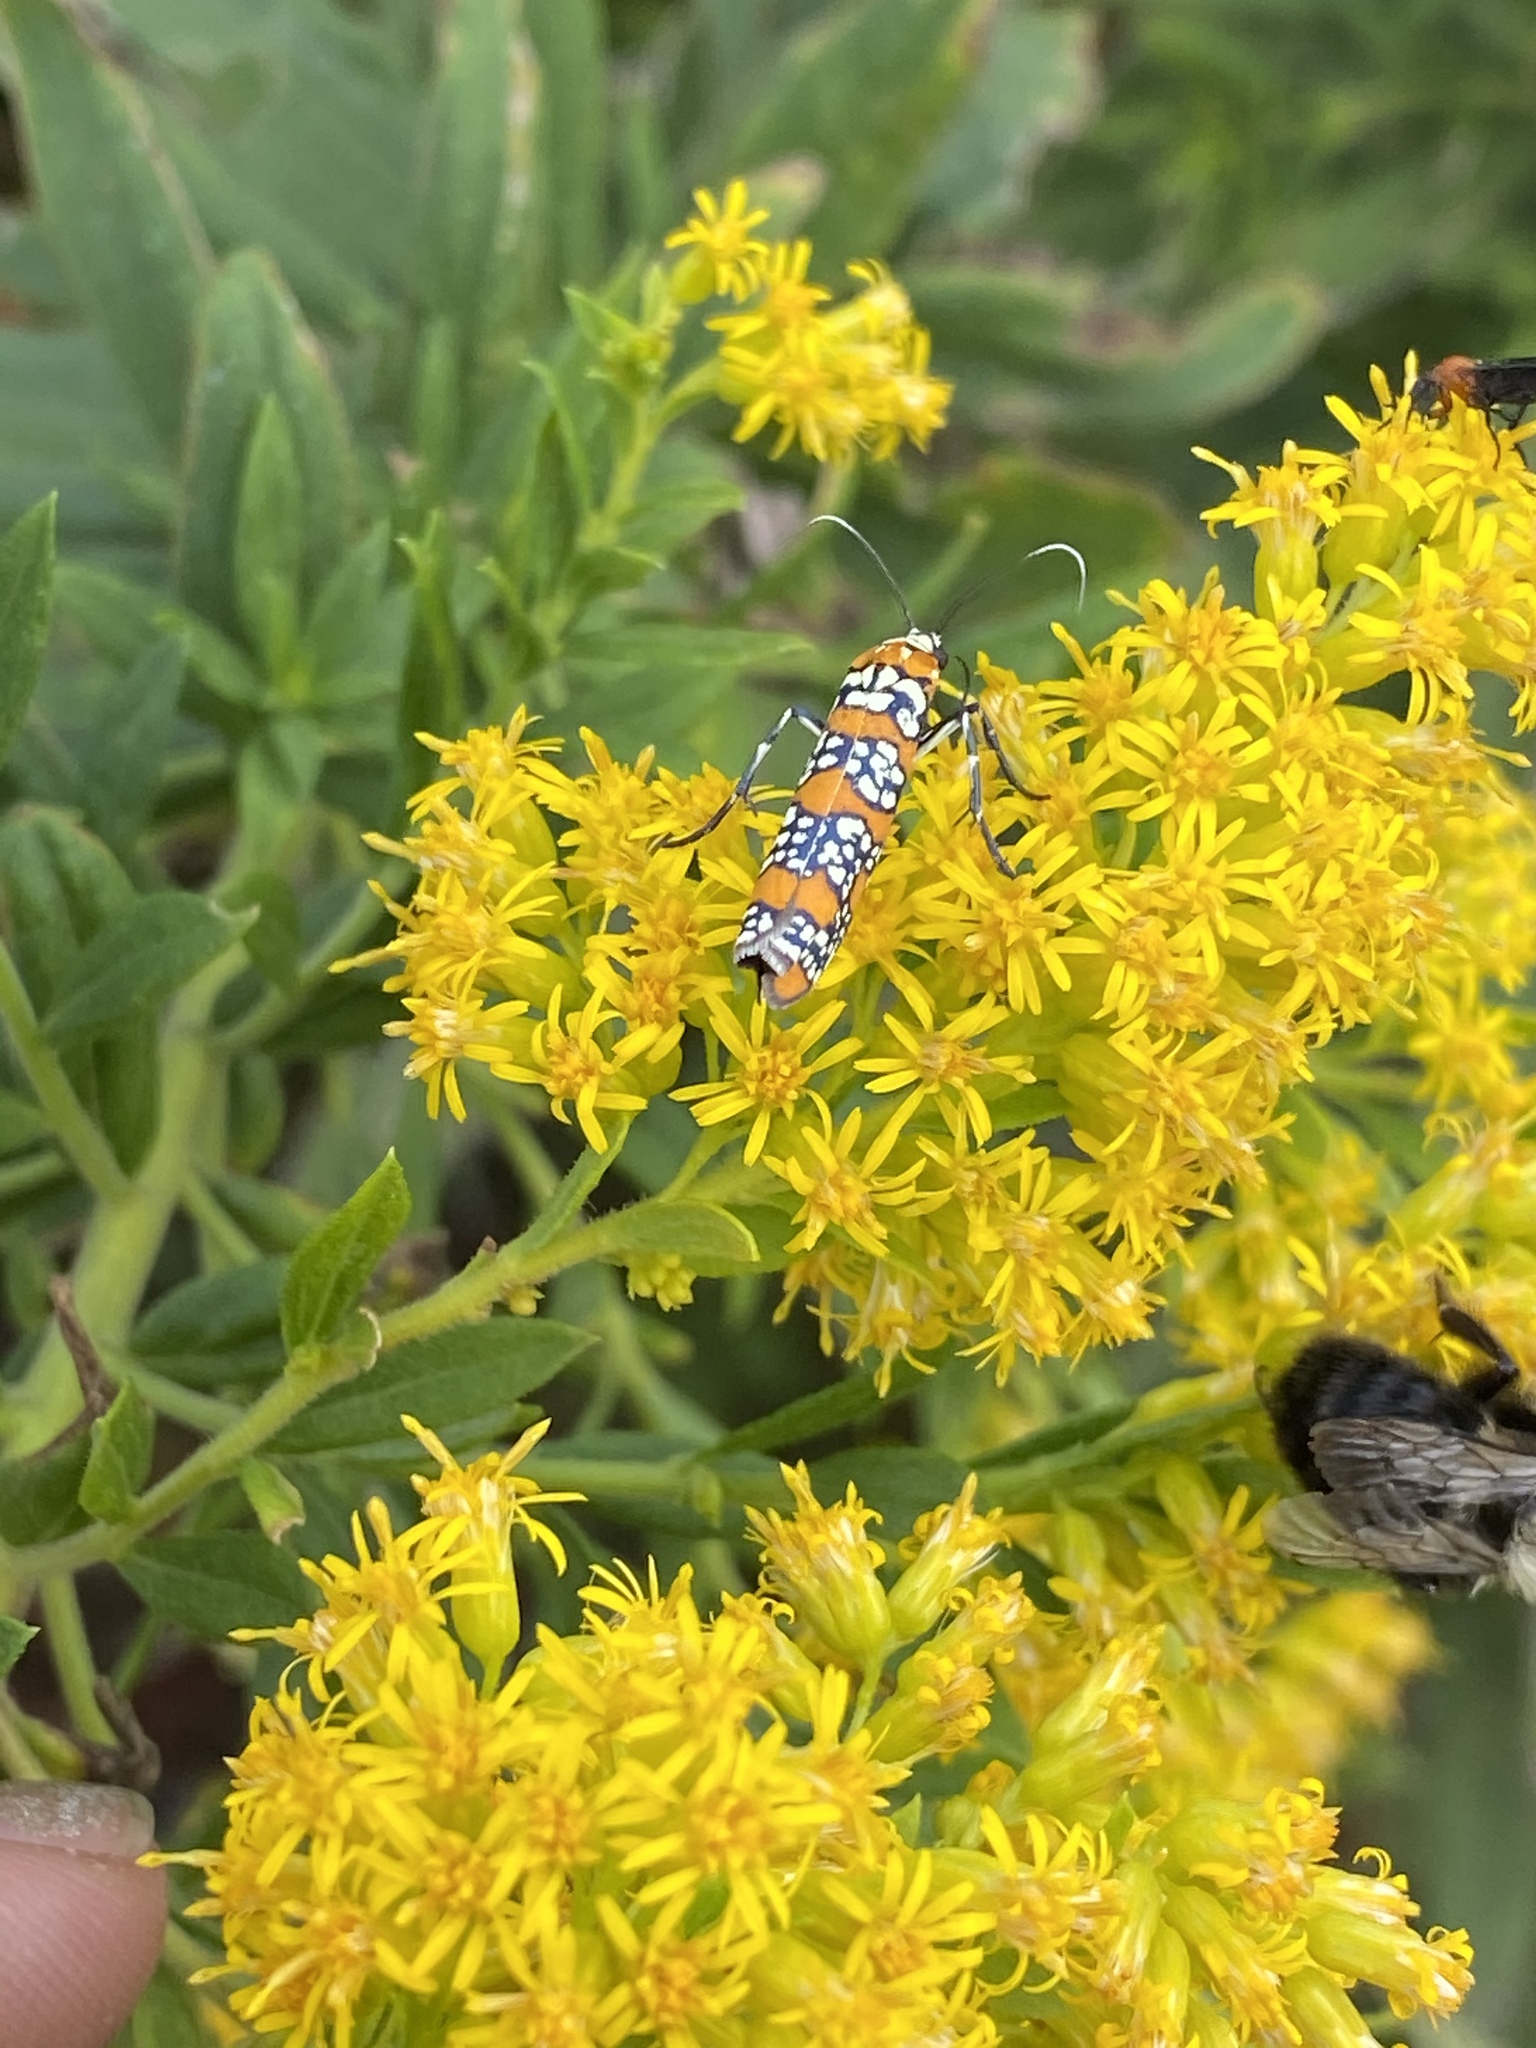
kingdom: Animalia
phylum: Arthropoda
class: Insecta
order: Lepidoptera
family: Attevidae
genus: Atteva
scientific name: Atteva punctella
